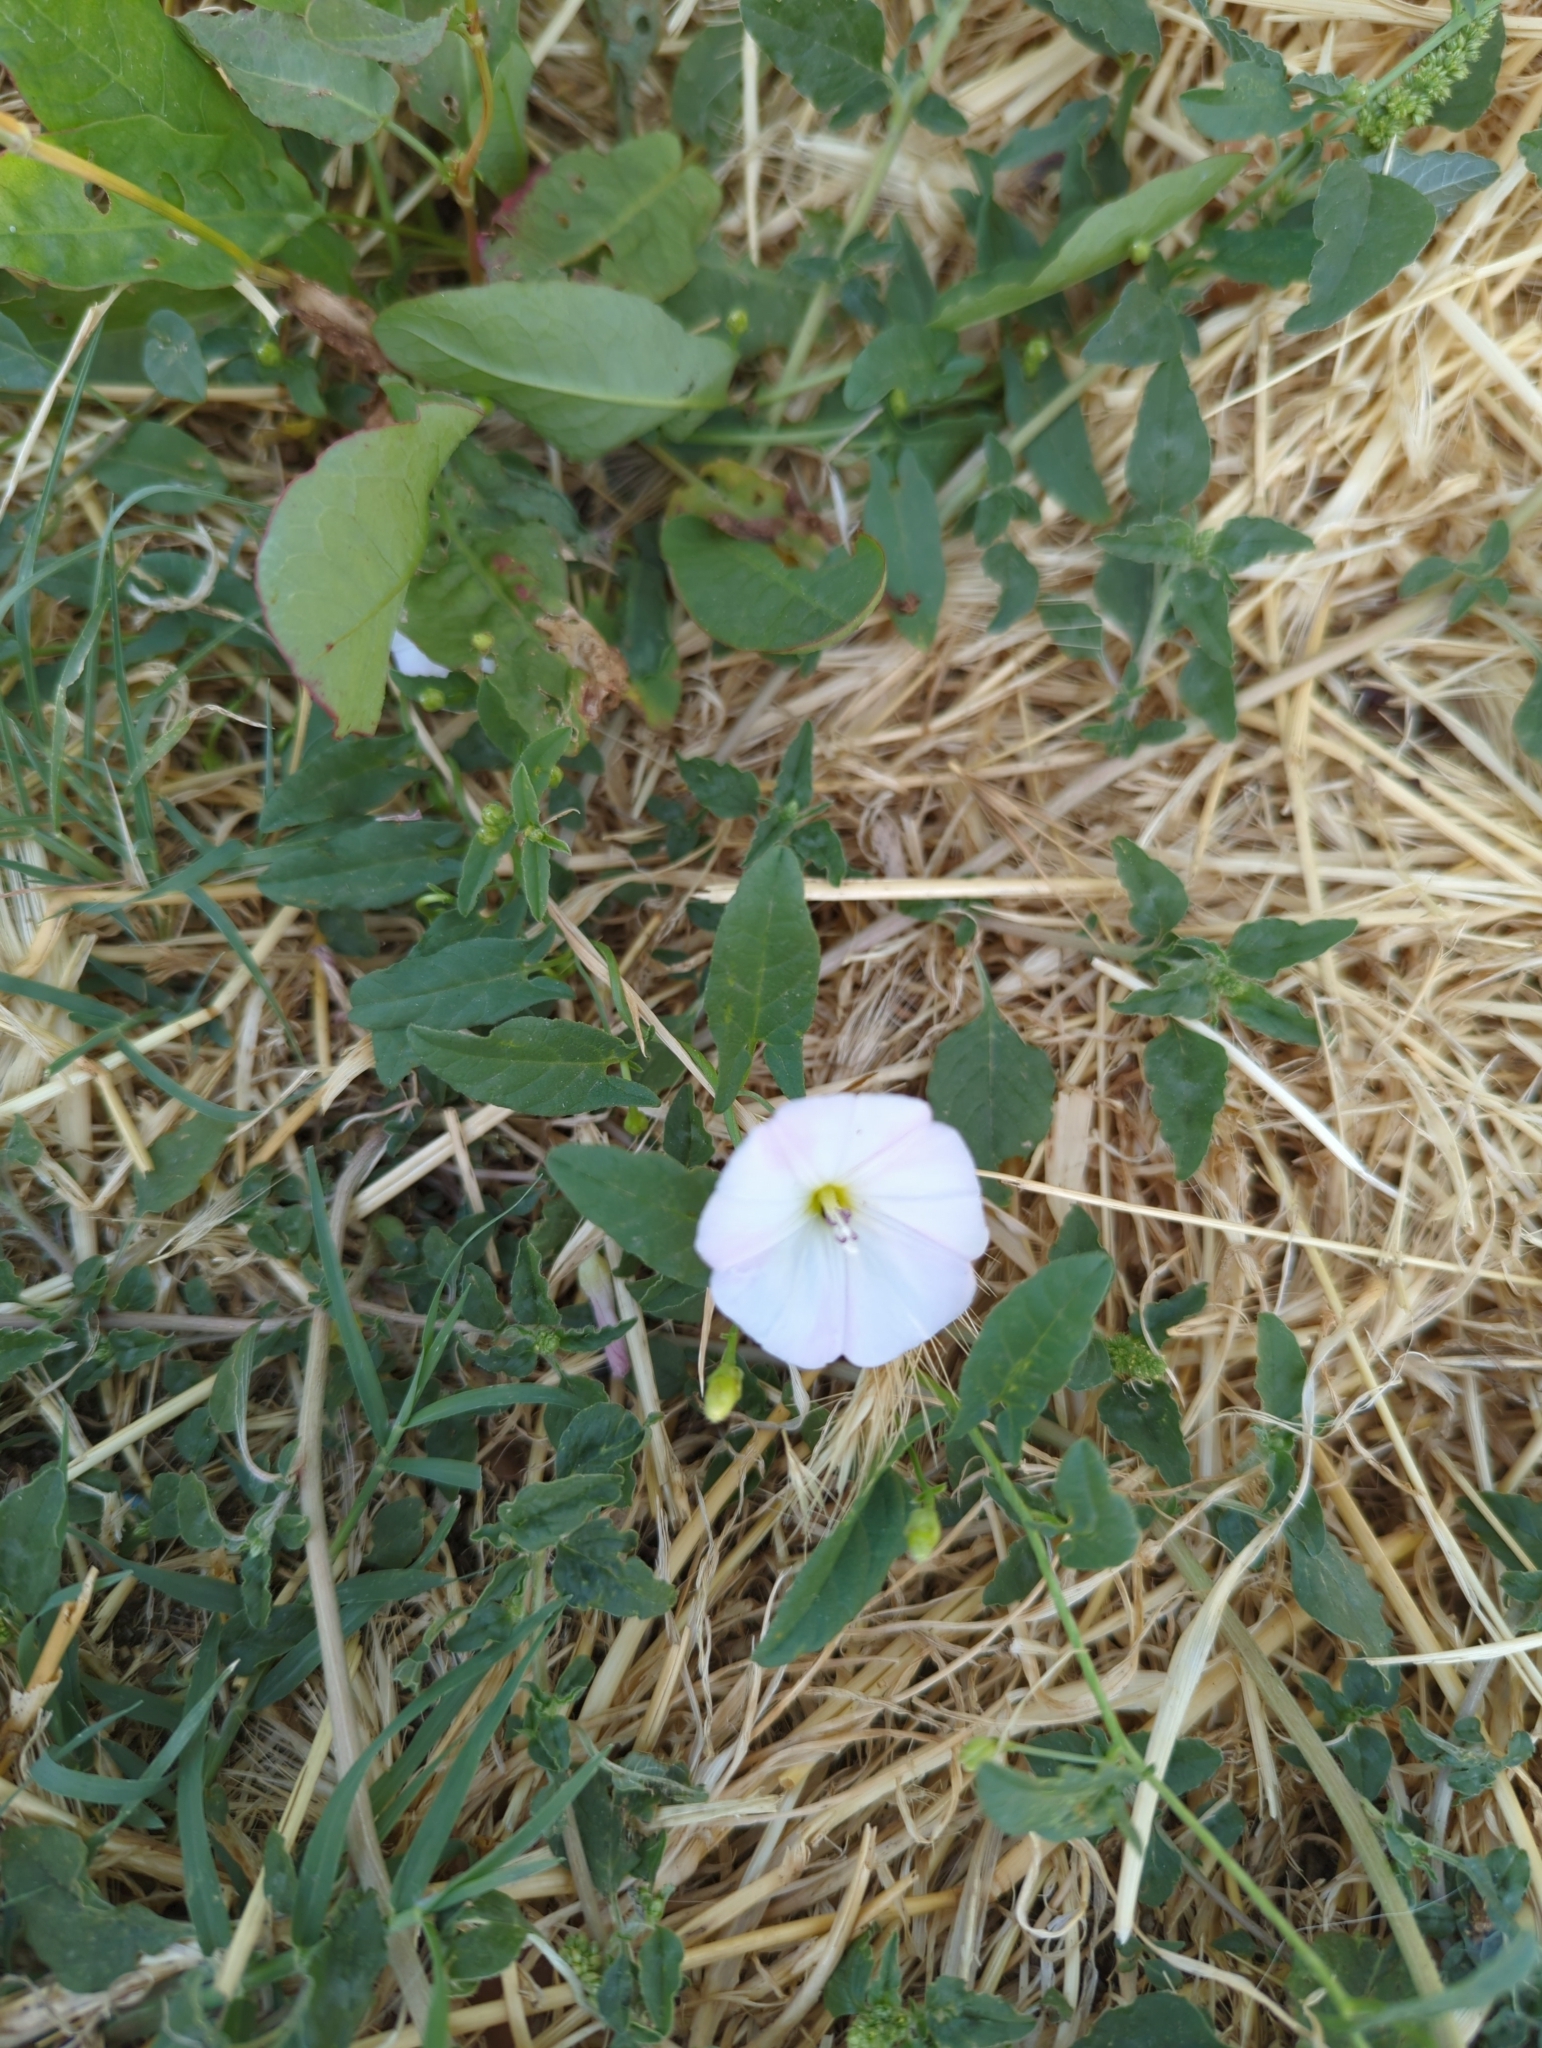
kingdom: Plantae
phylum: Tracheophyta
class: Magnoliopsida
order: Solanales
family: Convolvulaceae
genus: Convolvulus
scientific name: Convolvulus arvensis
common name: Field bindweed
